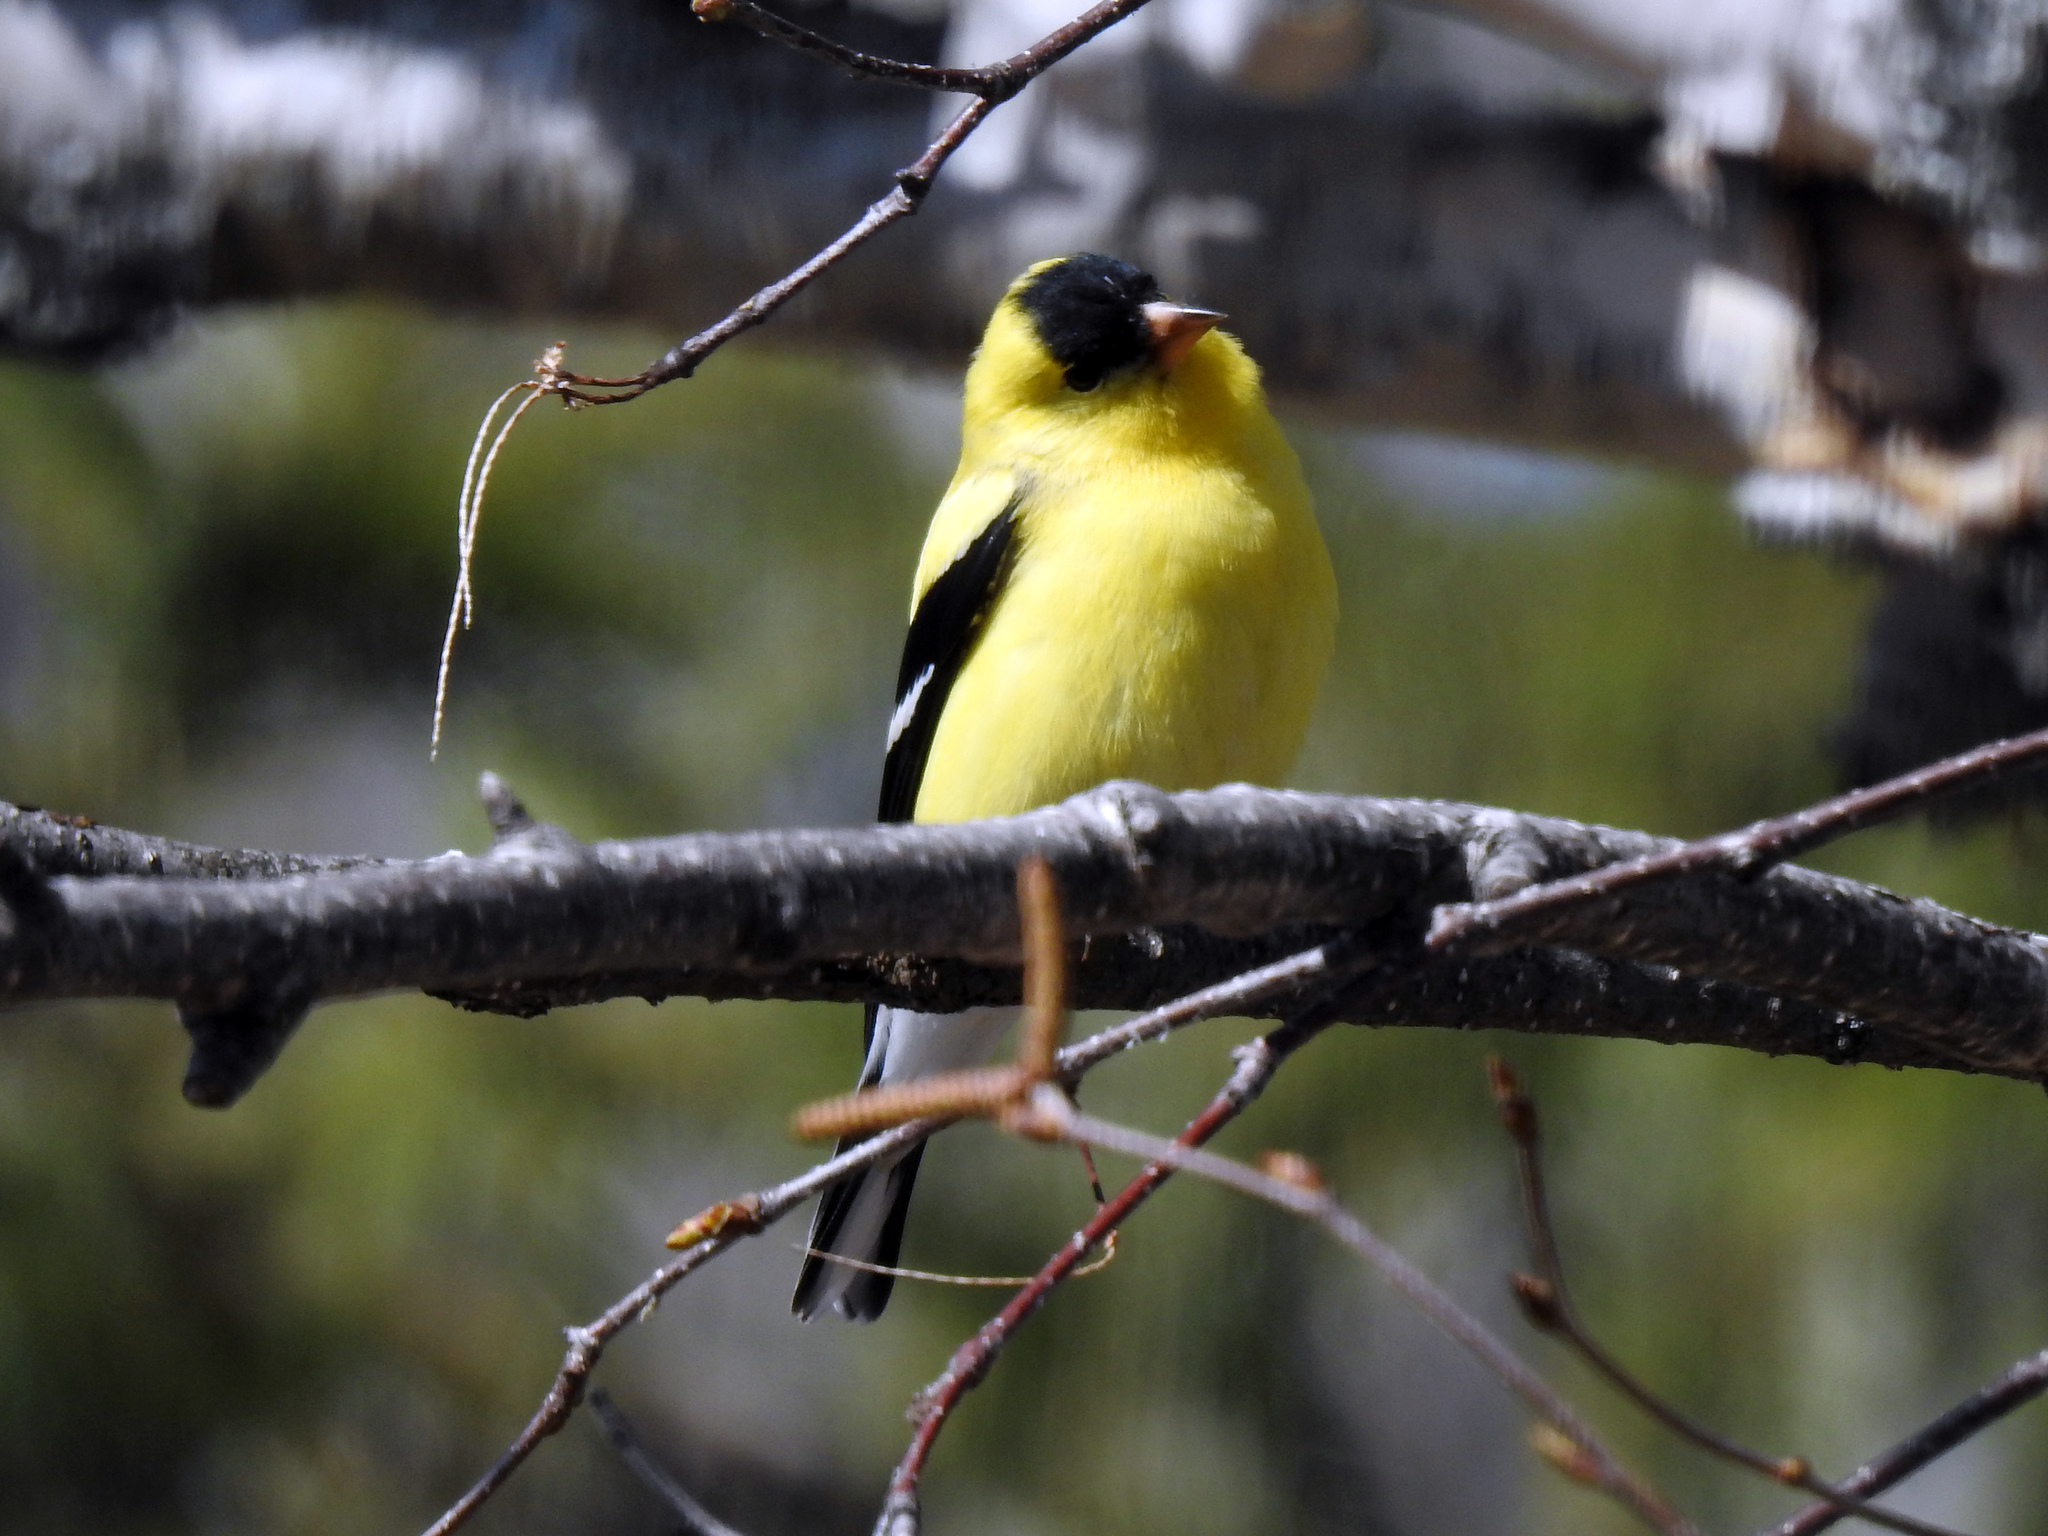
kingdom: Animalia
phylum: Chordata
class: Aves
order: Passeriformes
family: Fringillidae
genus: Spinus
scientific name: Spinus tristis
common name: American goldfinch
